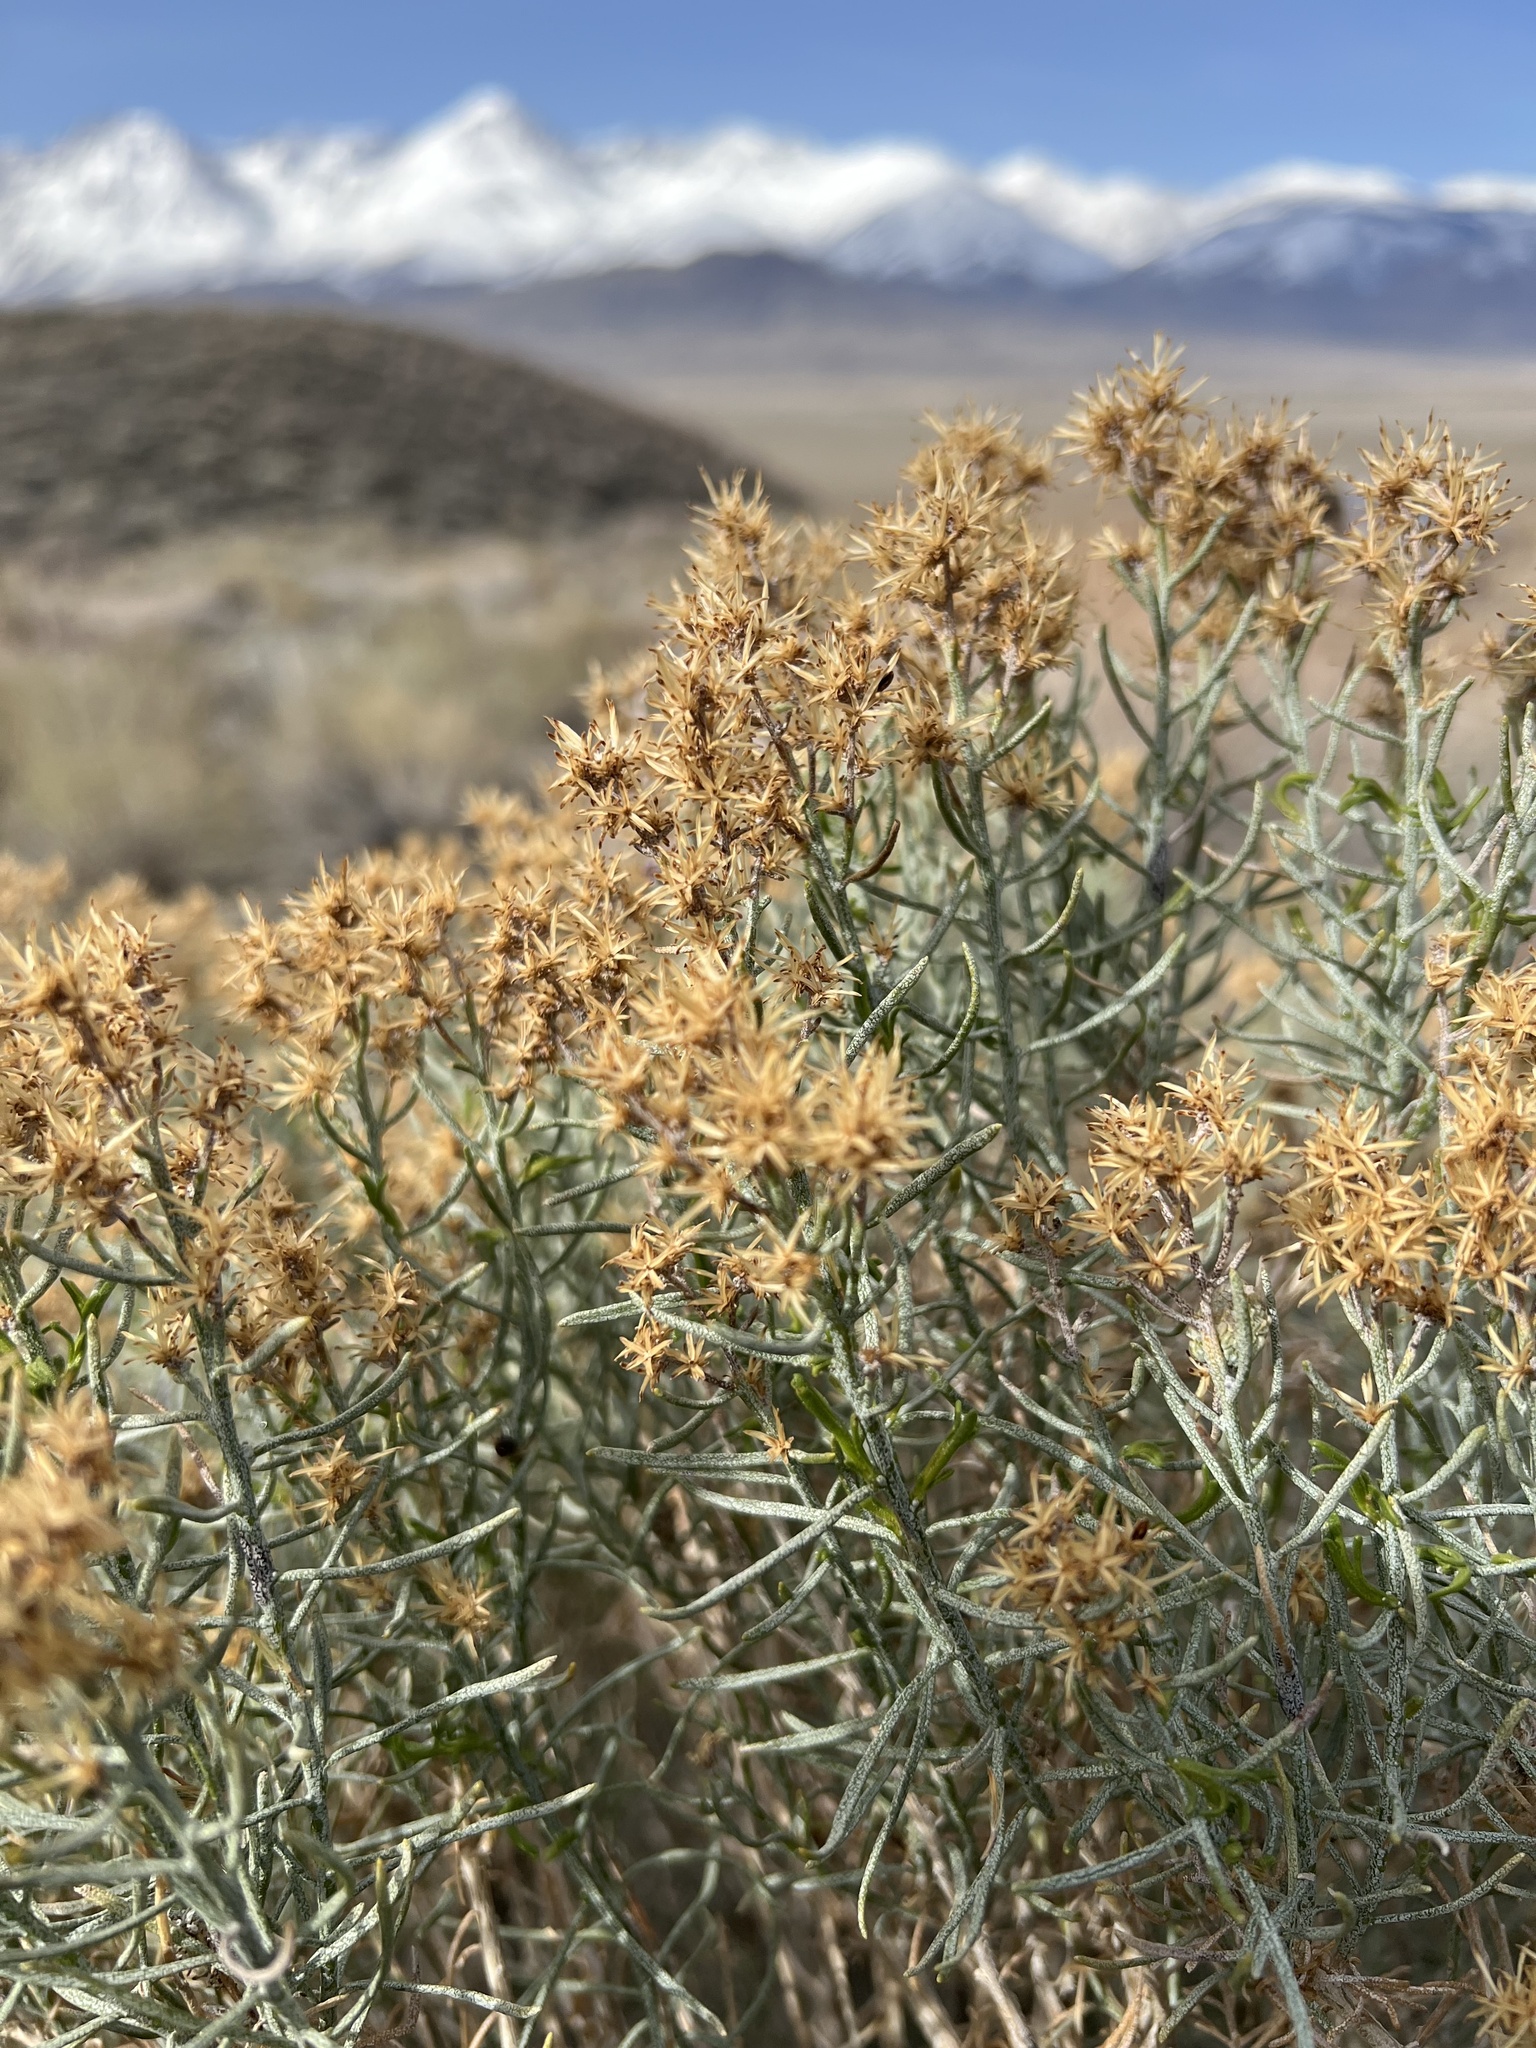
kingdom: Plantae
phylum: Tracheophyta
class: Magnoliopsida
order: Asterales
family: Asteraceae
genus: Ericameria
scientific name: Ericameria teretifolia
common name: Round-leaf rabbitbrush
